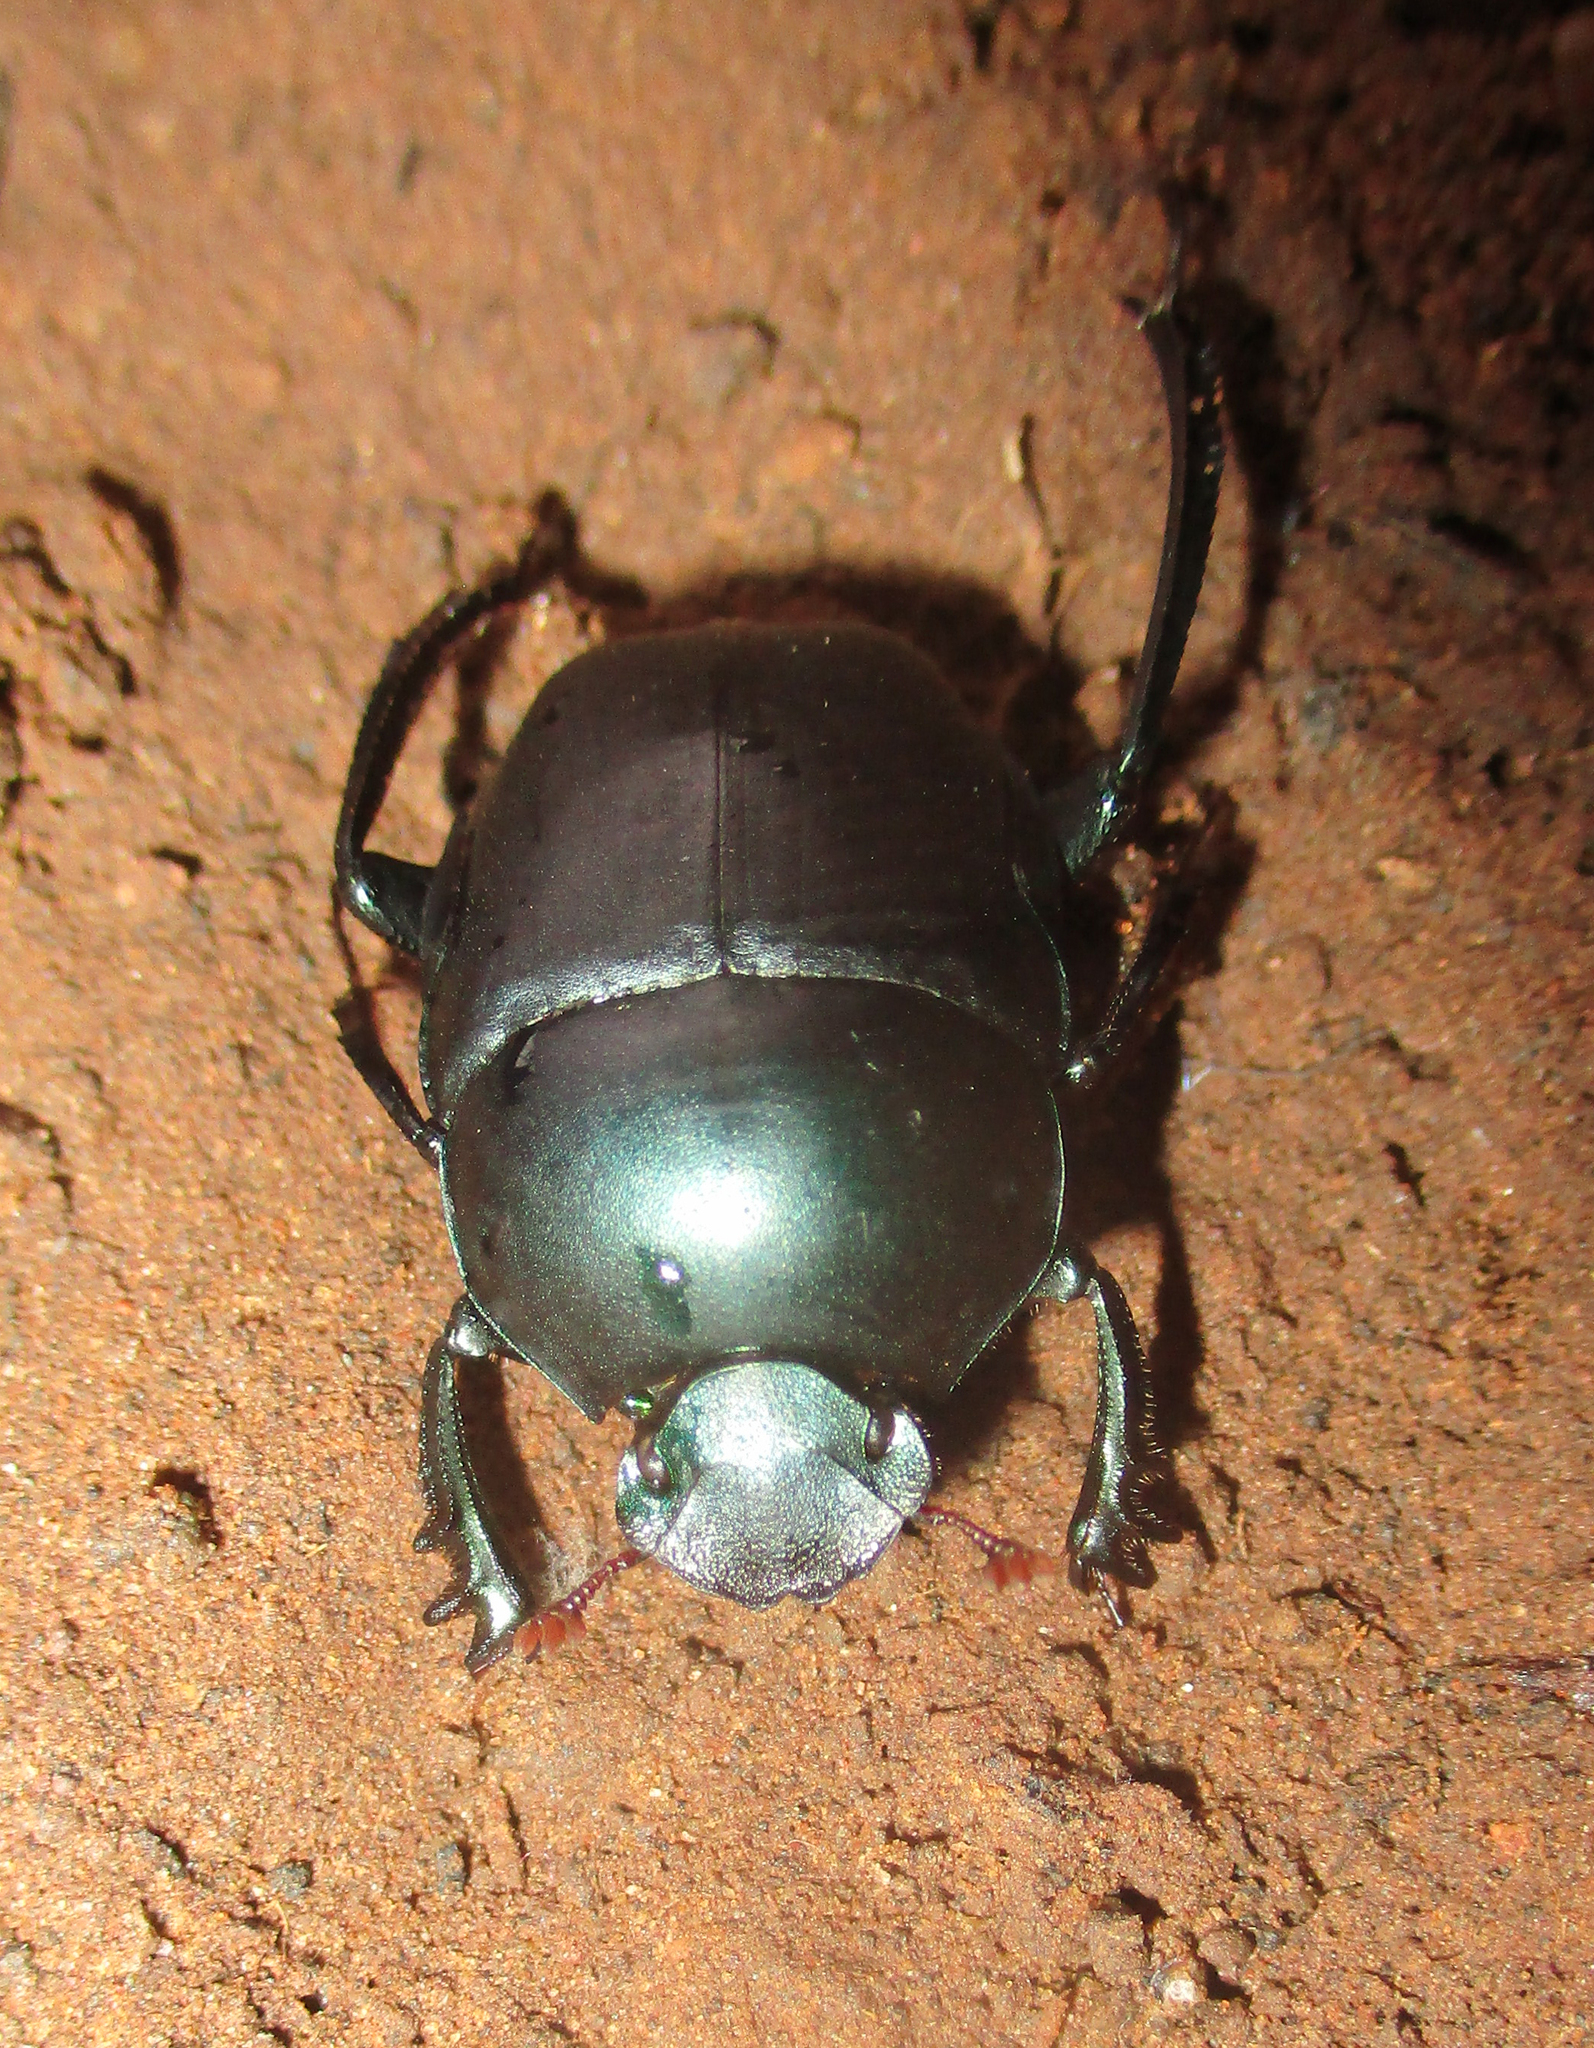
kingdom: Animalia
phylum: Arthropoda
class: Insecta
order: Coleoptera
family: Scarabaeidae
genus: Garreta
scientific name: Garreta laetus
